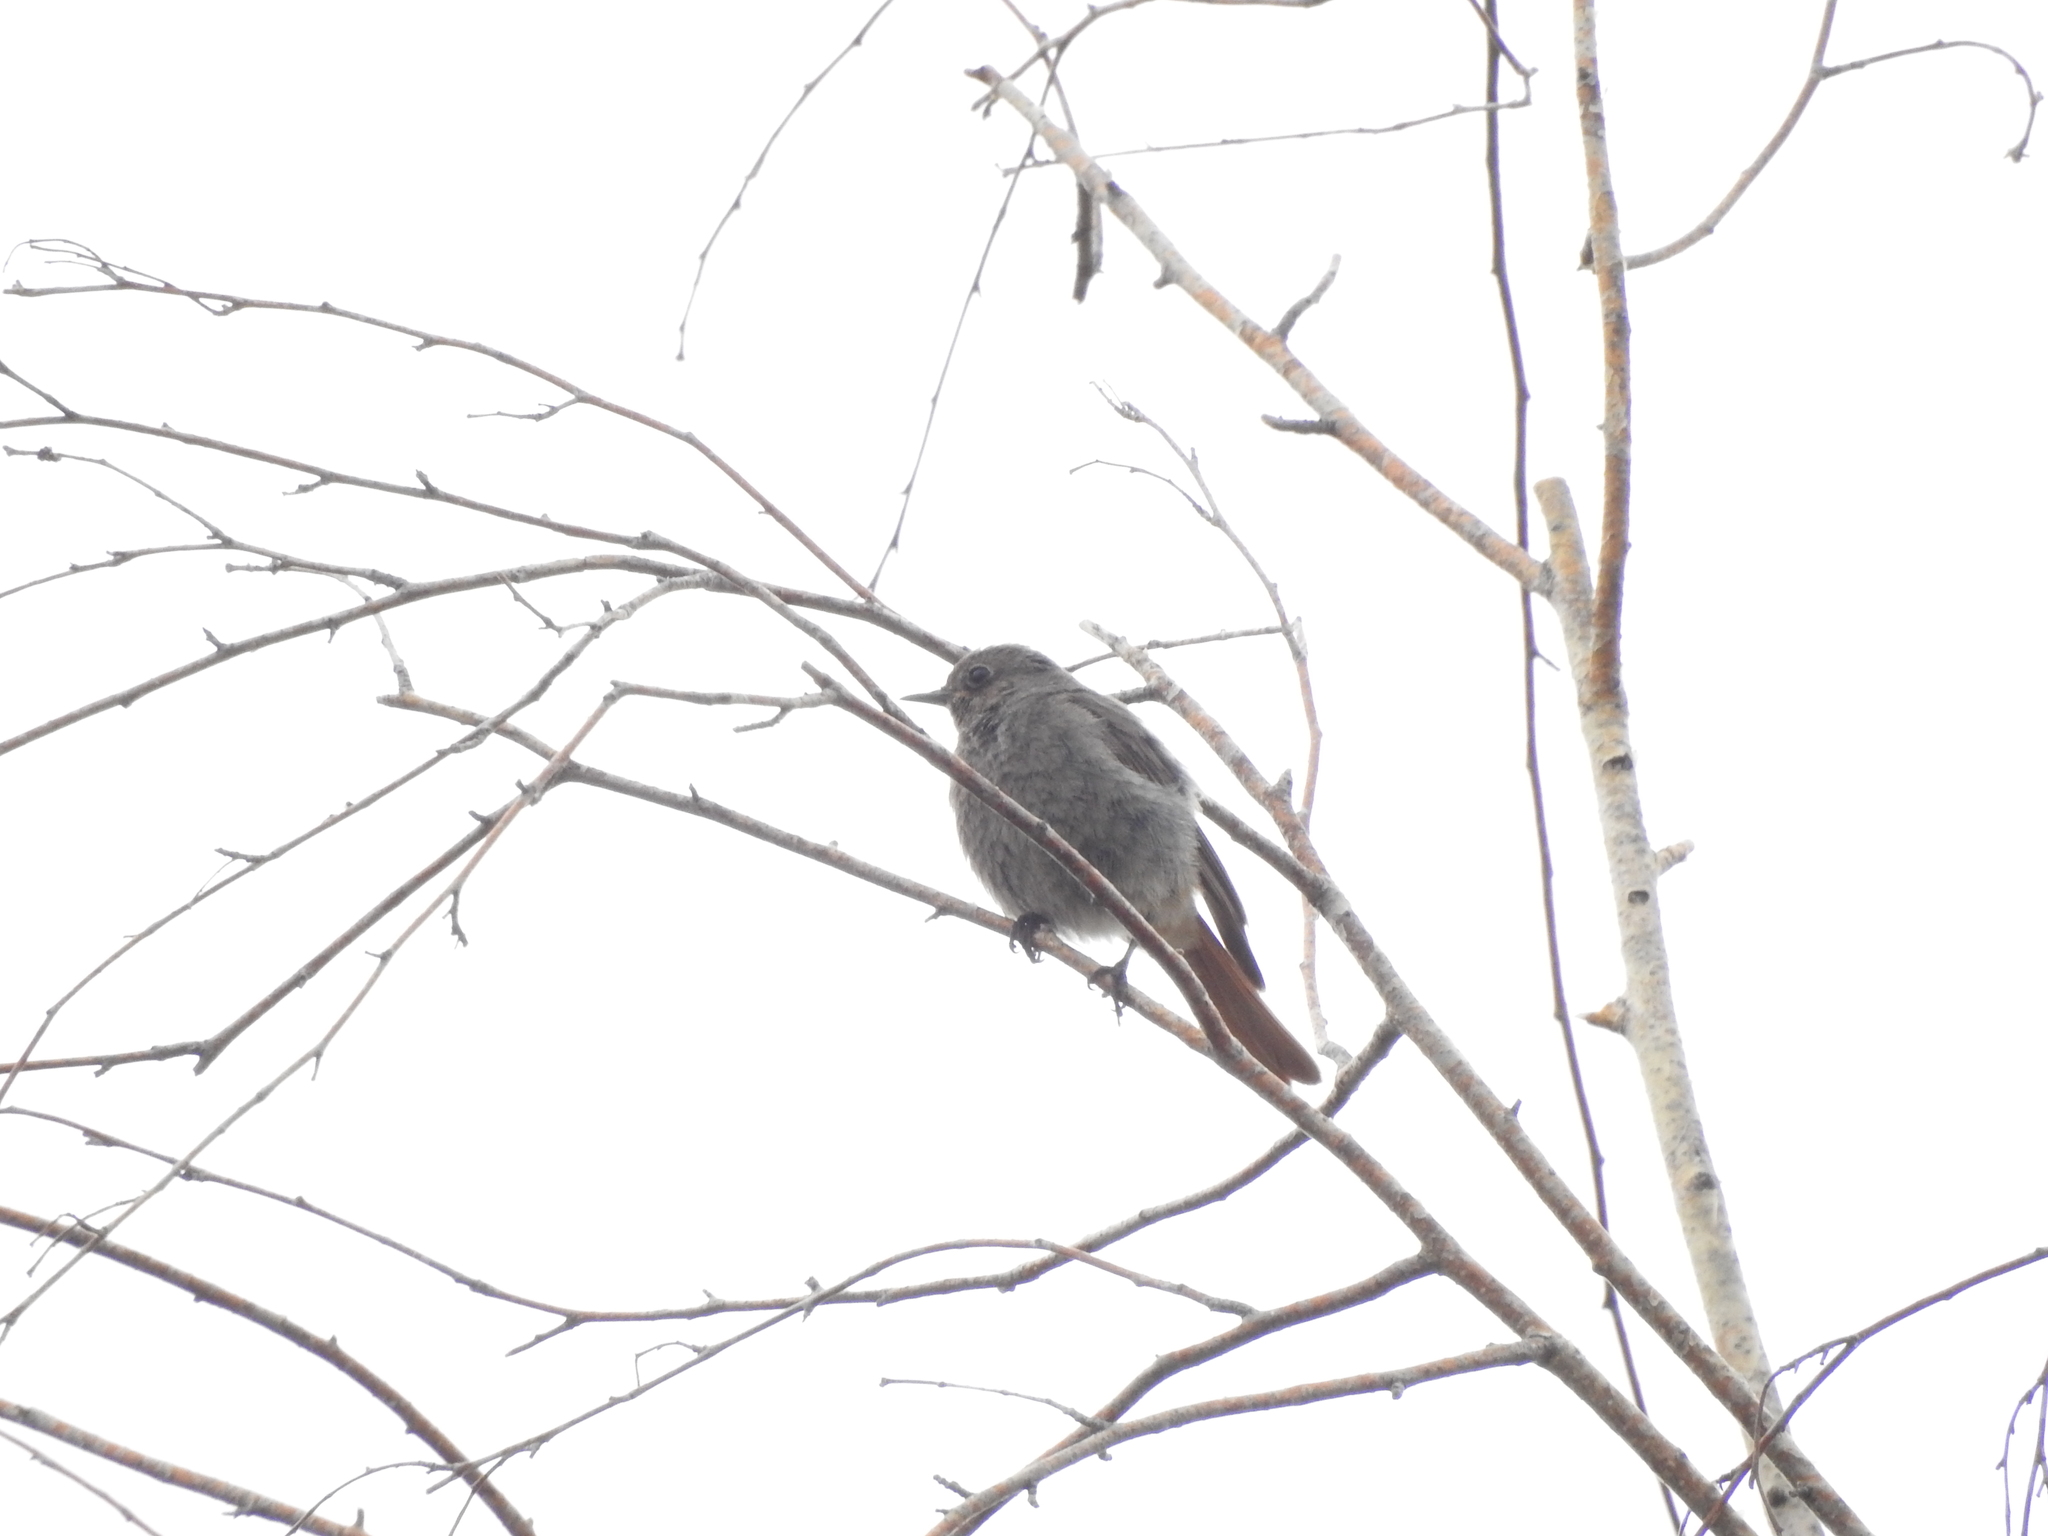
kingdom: Animalia
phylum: Chordata
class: Aves
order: Passeriformes
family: Muscicapidae
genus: Phoenicurus
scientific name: Phoenicurus ochruros
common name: Black redstart
